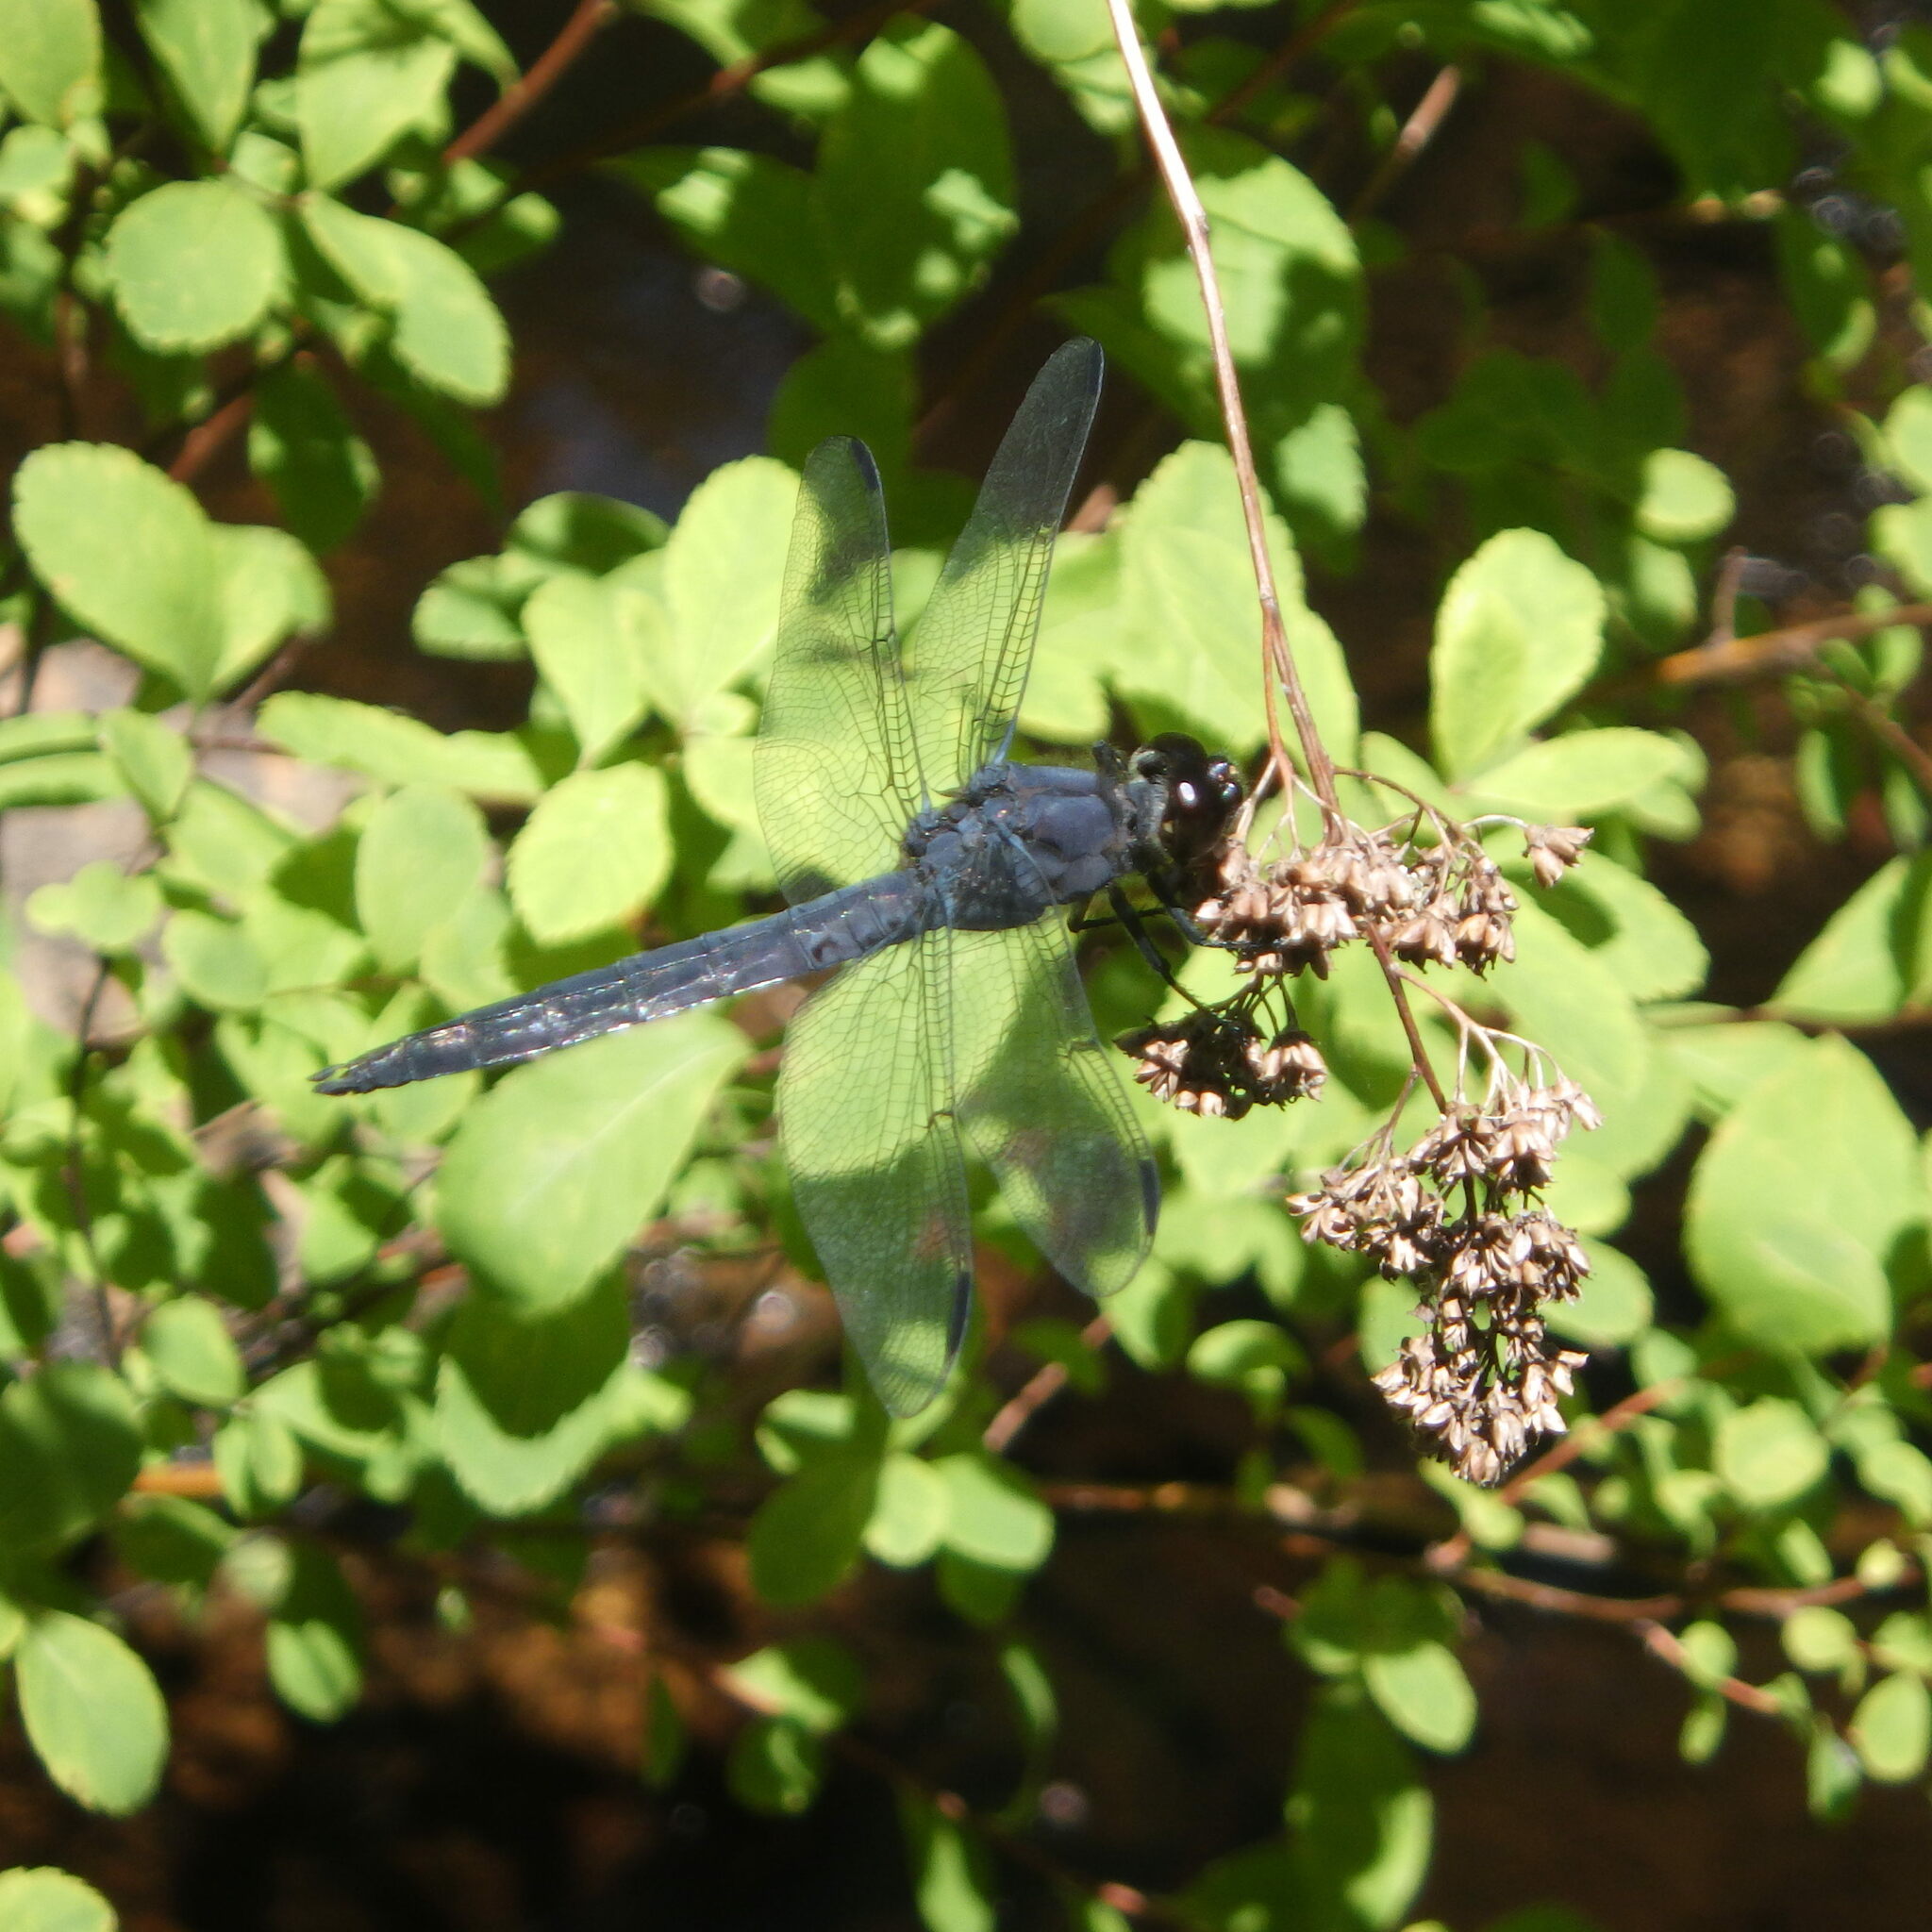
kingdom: Animalia
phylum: Arthropoda
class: Insecta
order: Odonata
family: Libellulidae
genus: Libellula
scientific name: Libellula incesta
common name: Slaty skimmer
